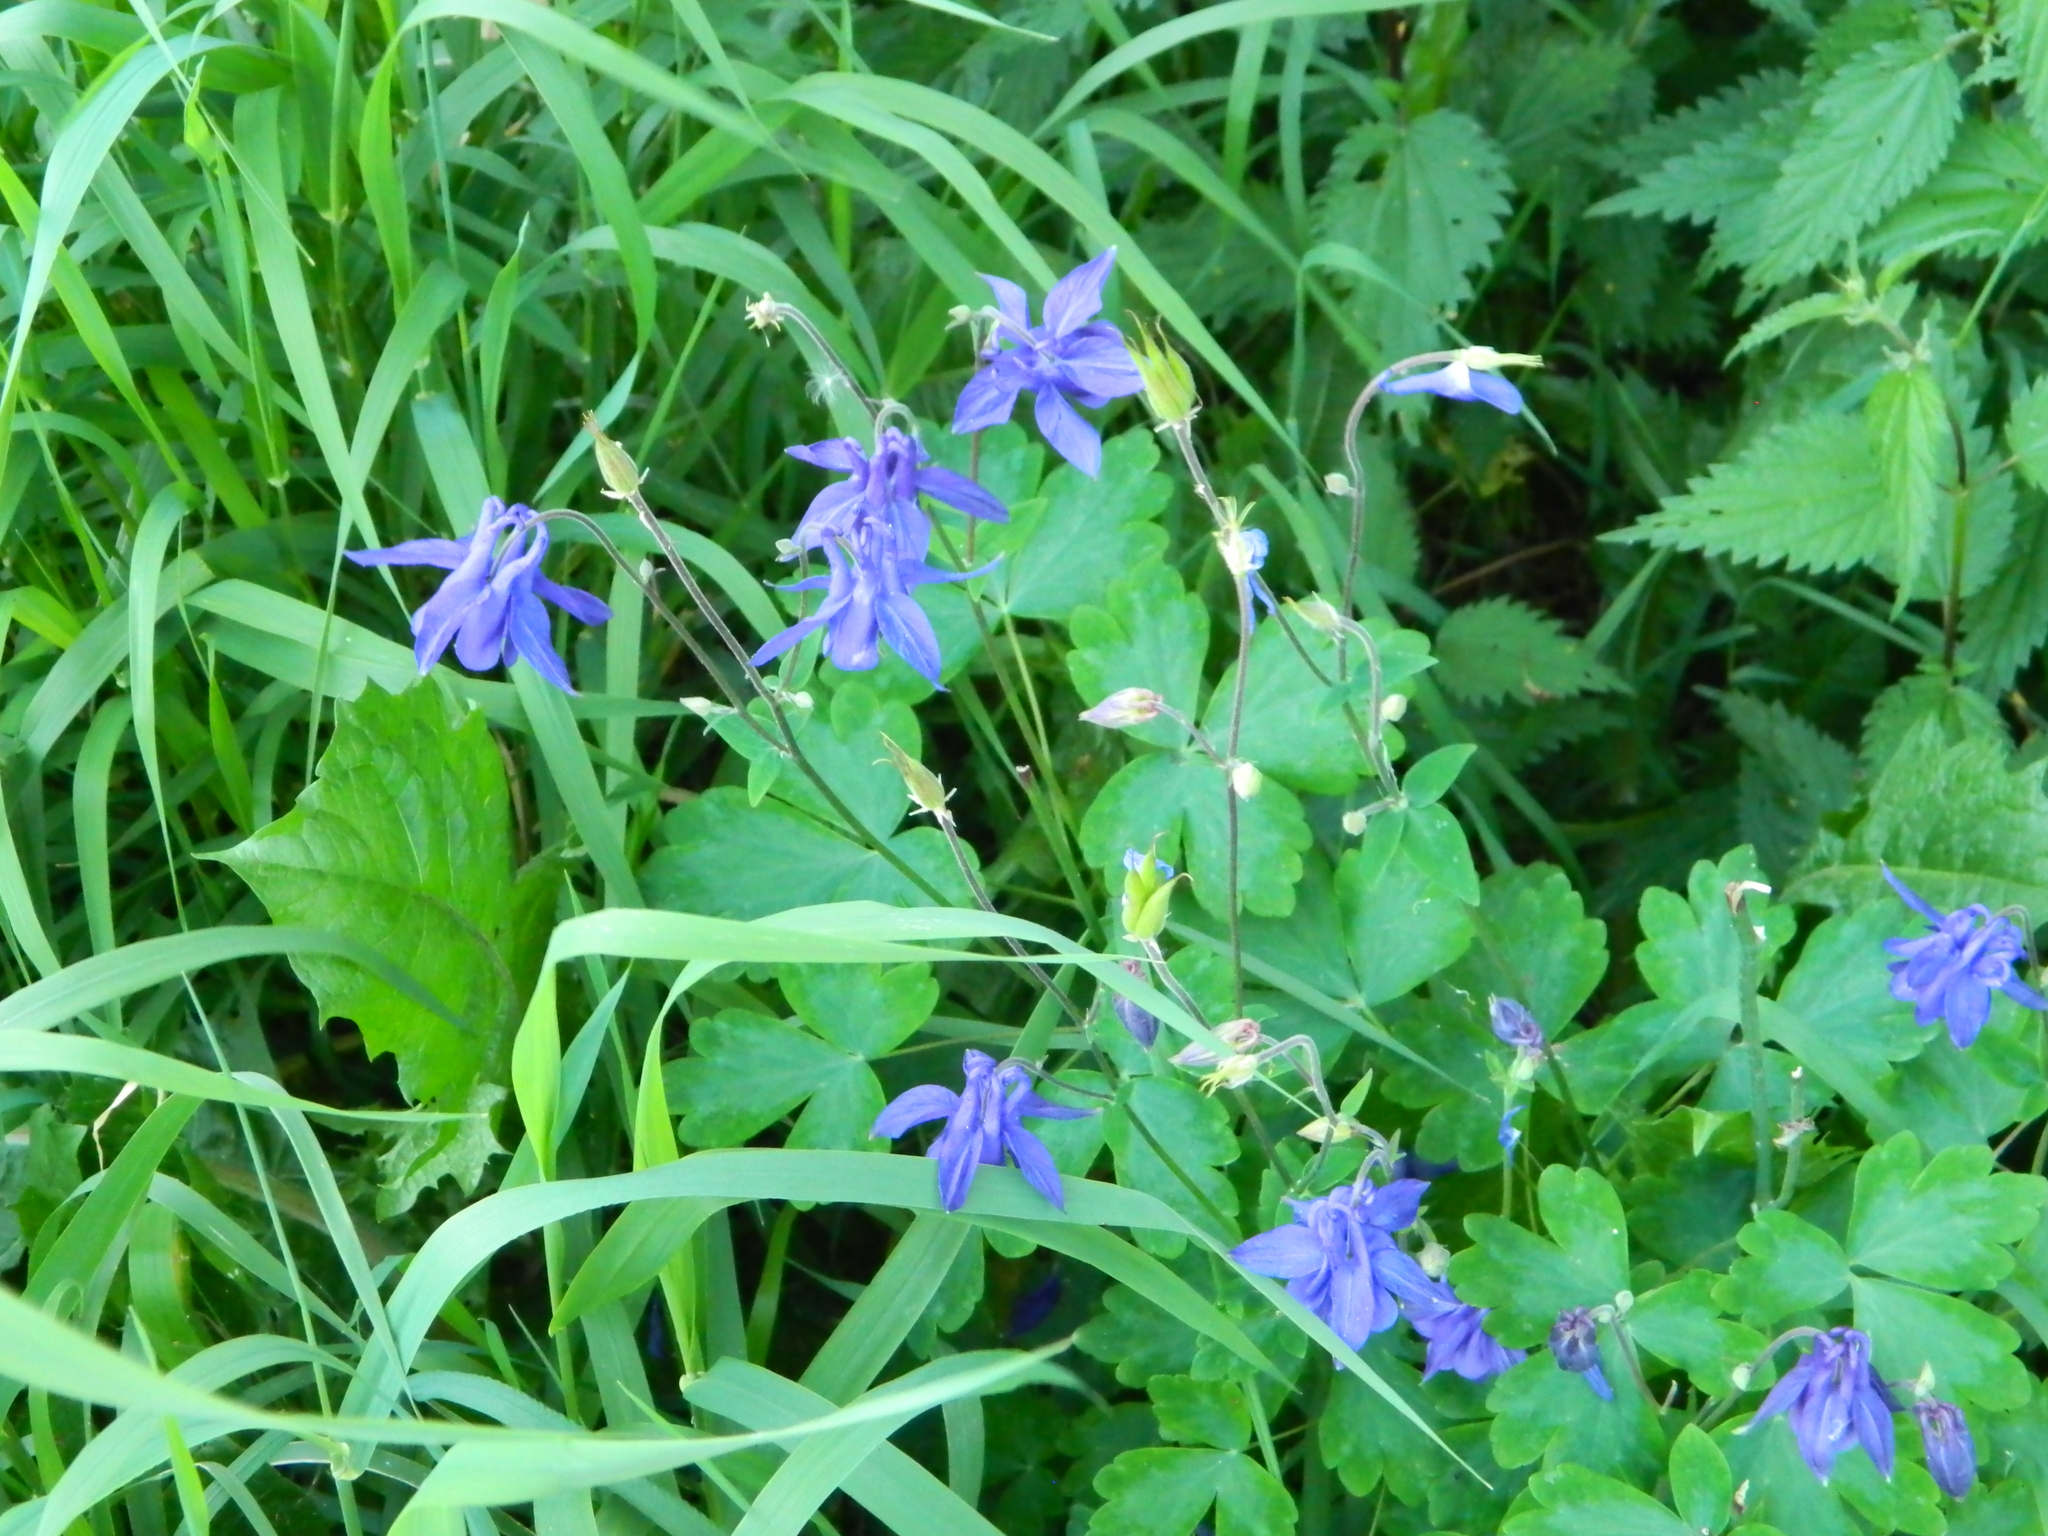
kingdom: Plantae
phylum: Tracheophyta
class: Magnoliopsida
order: Ranunculales
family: Ranunculaceae
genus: Aquilegia
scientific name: Aquilegia vulgaris
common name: Columbine
